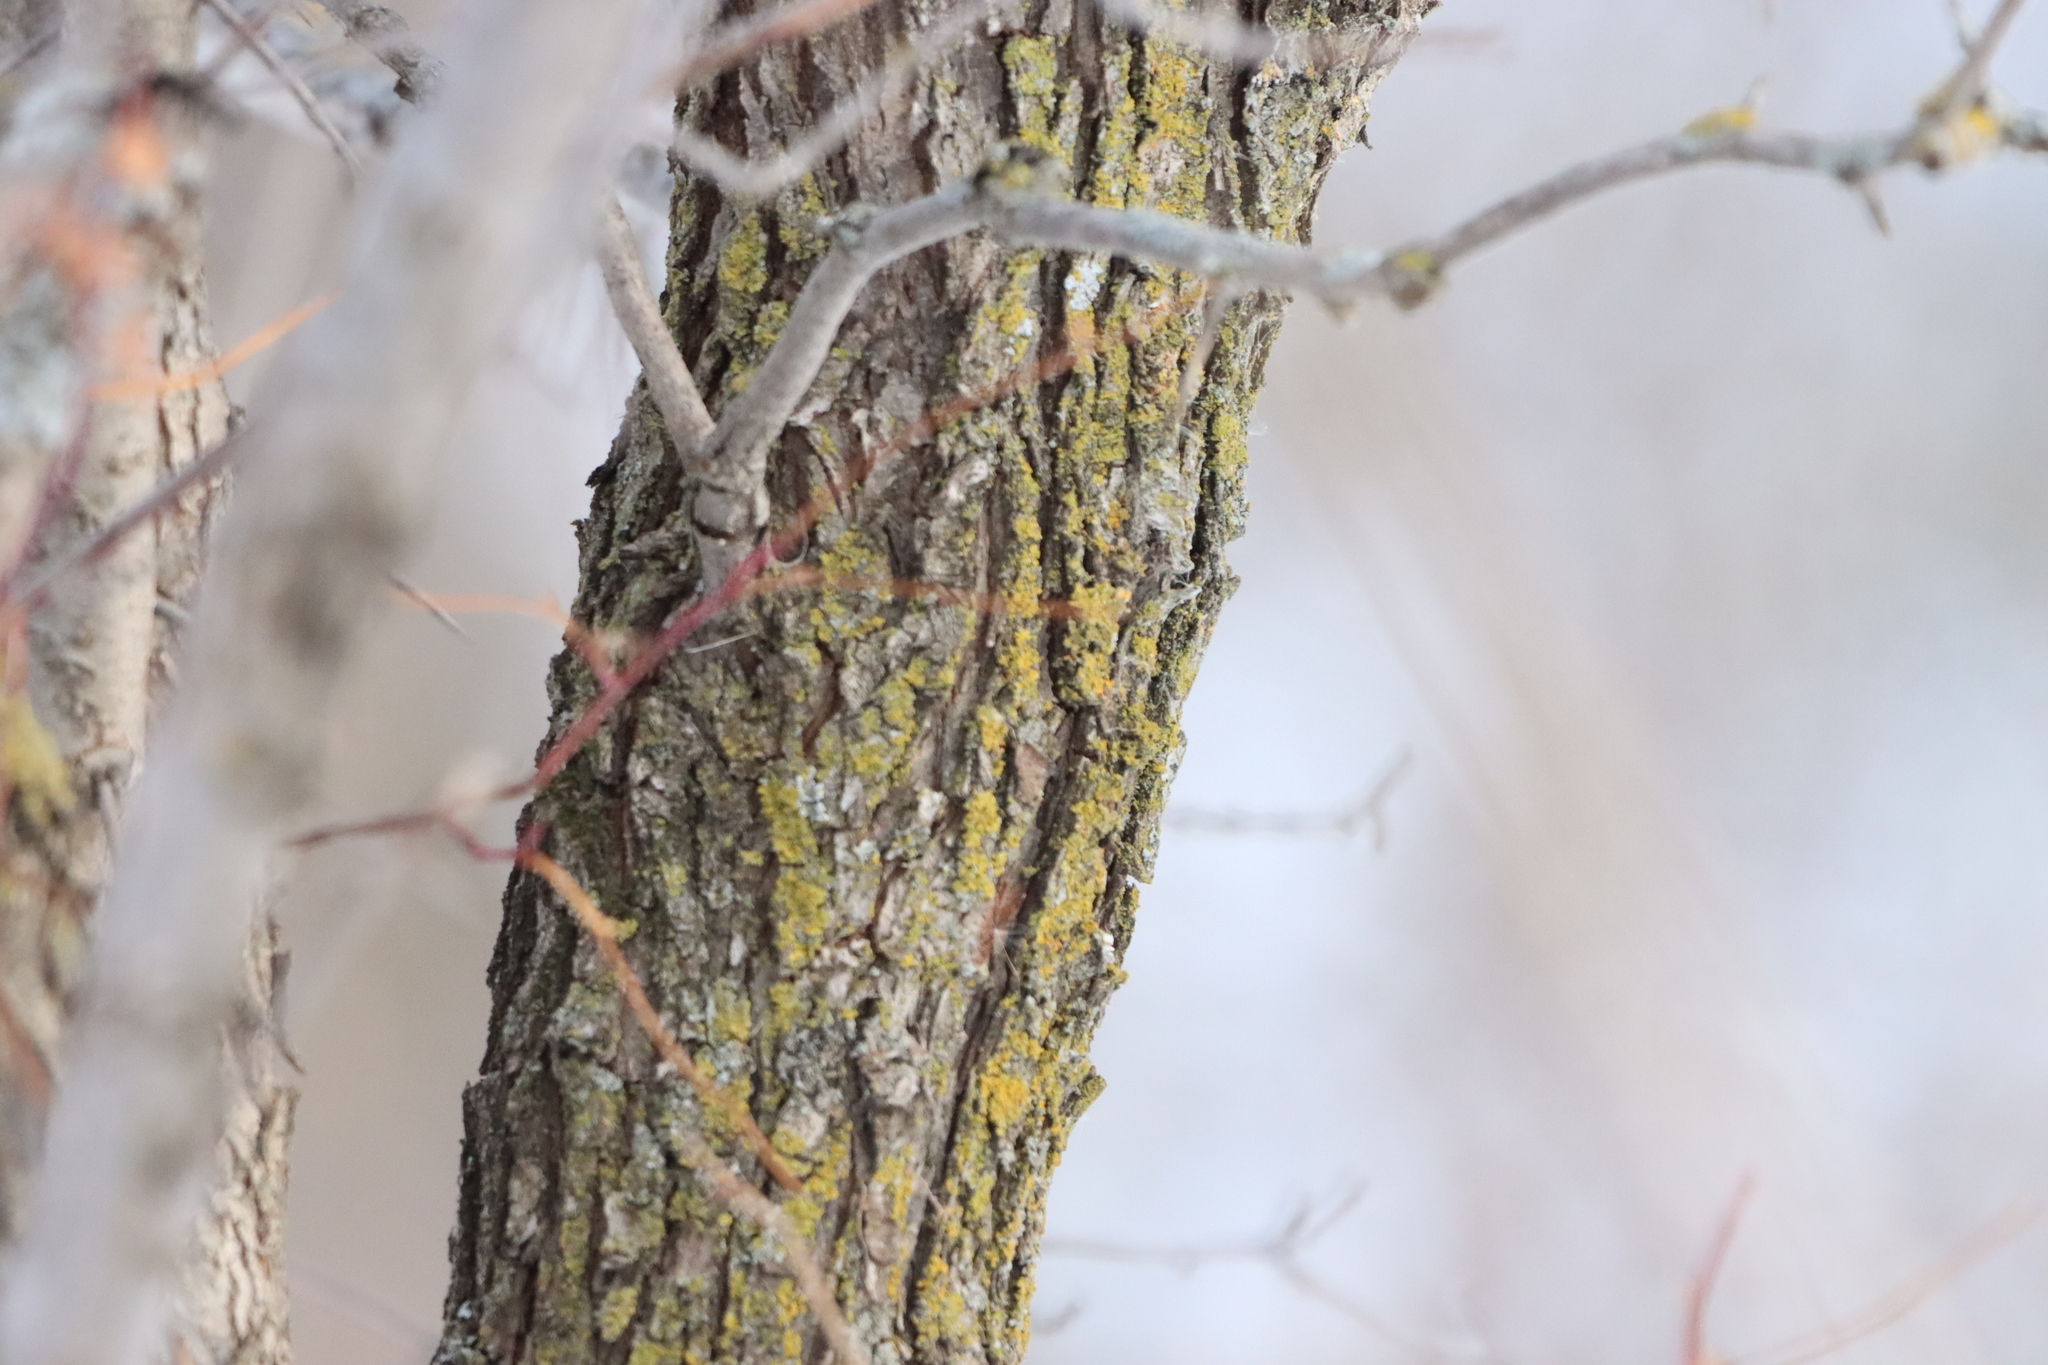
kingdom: Plantae
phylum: Tracheophyta
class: Magnoliopsida
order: Fagales
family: Fagaceae
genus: Quercus
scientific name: Quercus macrocarpa
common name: Bur oak
